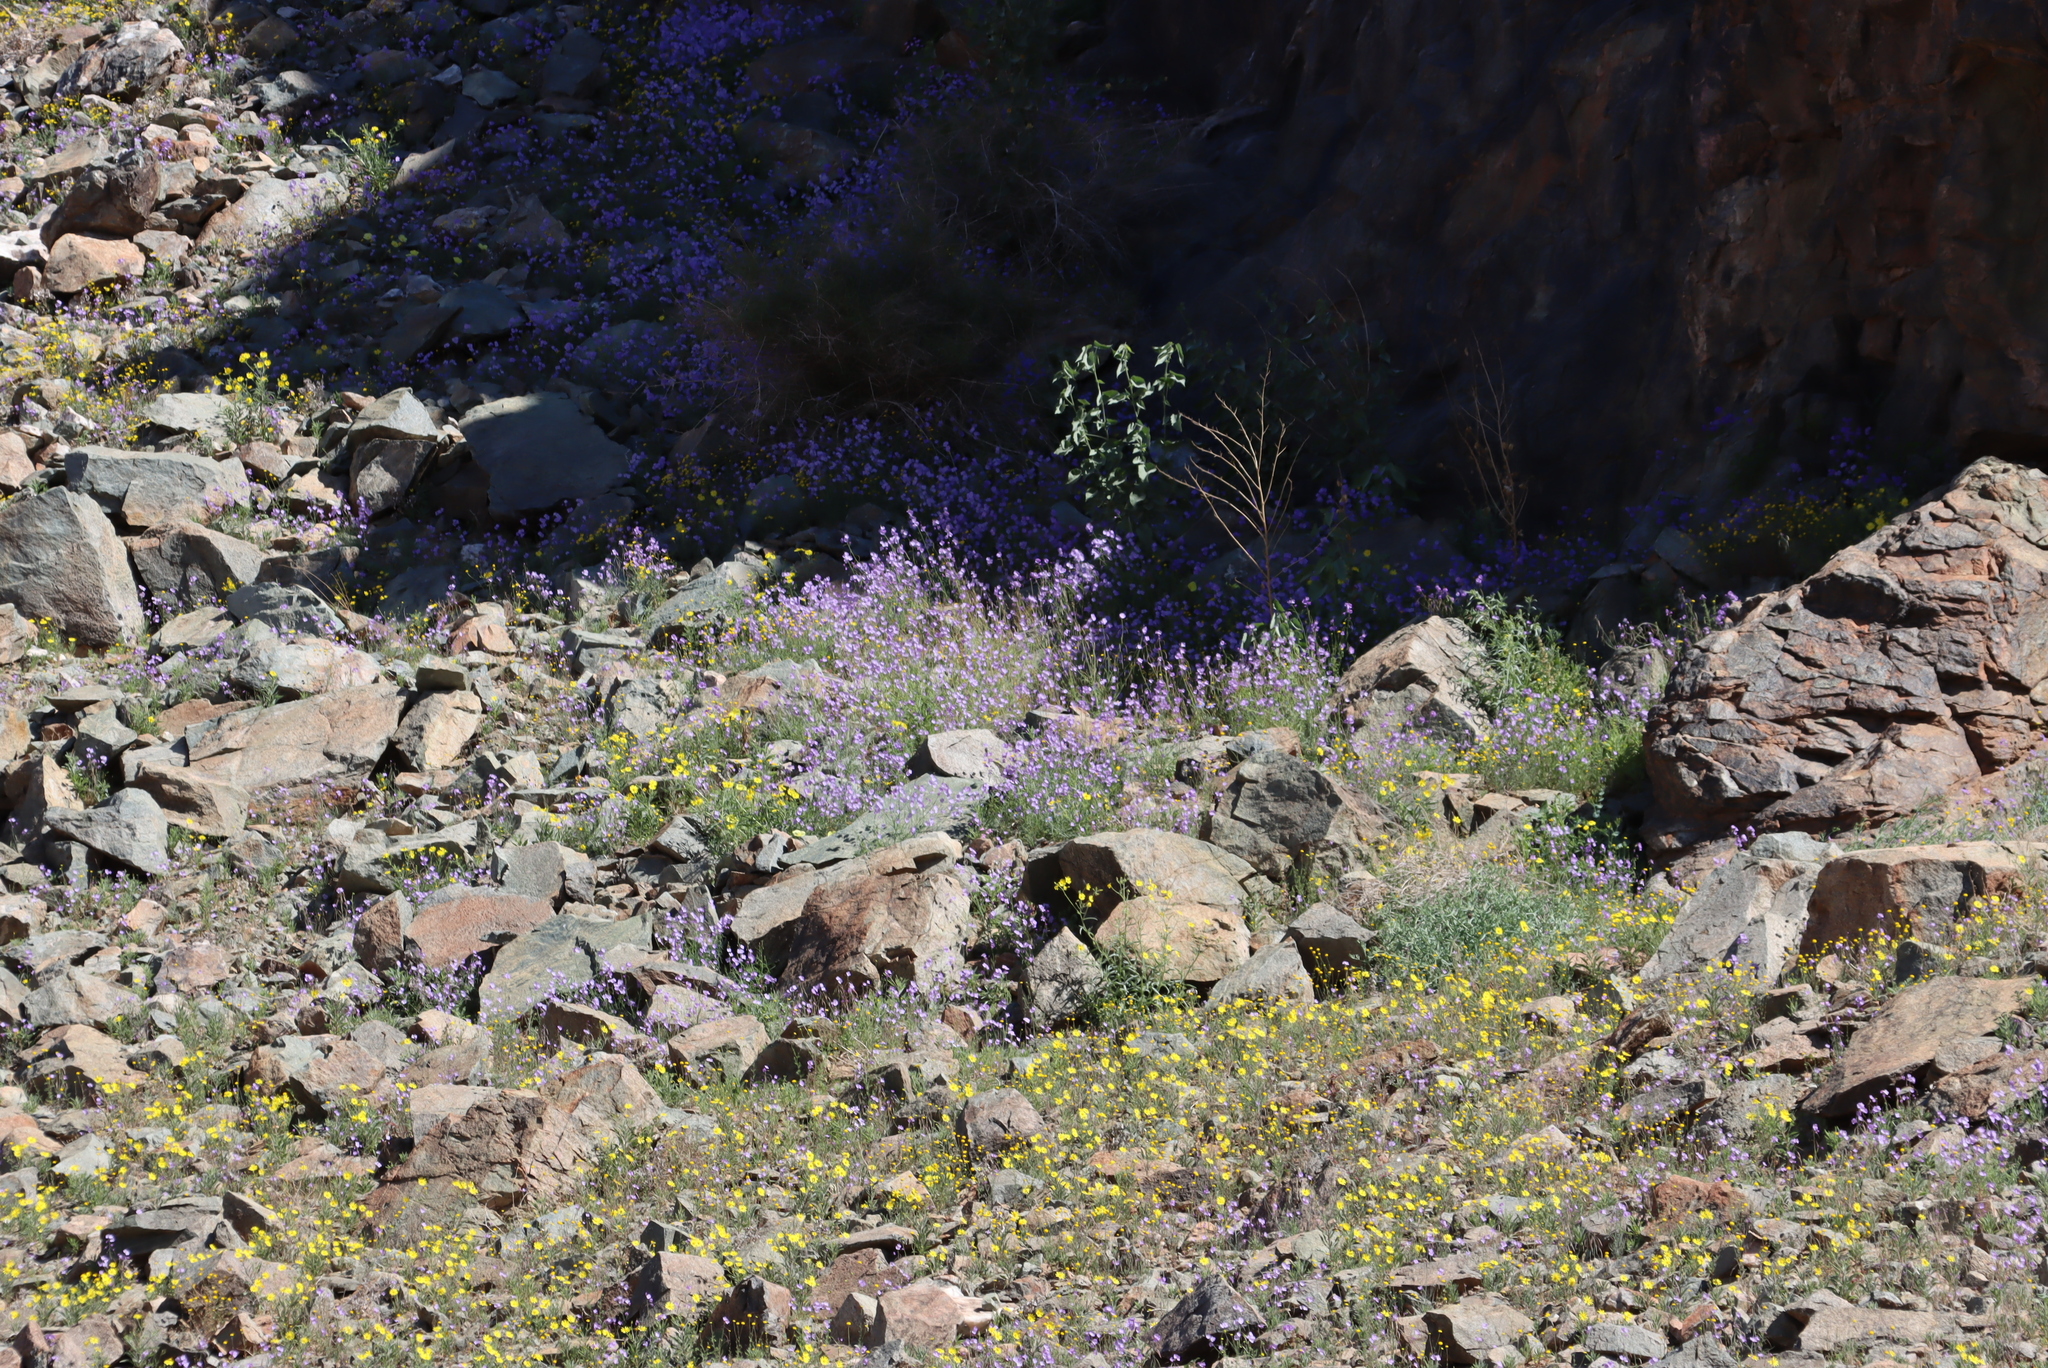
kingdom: Plantae
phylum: Tracheophyta
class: Magnoliopsida
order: Brassicales
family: Brassicaceae
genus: Heliophila
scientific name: Heliophila trifurca
